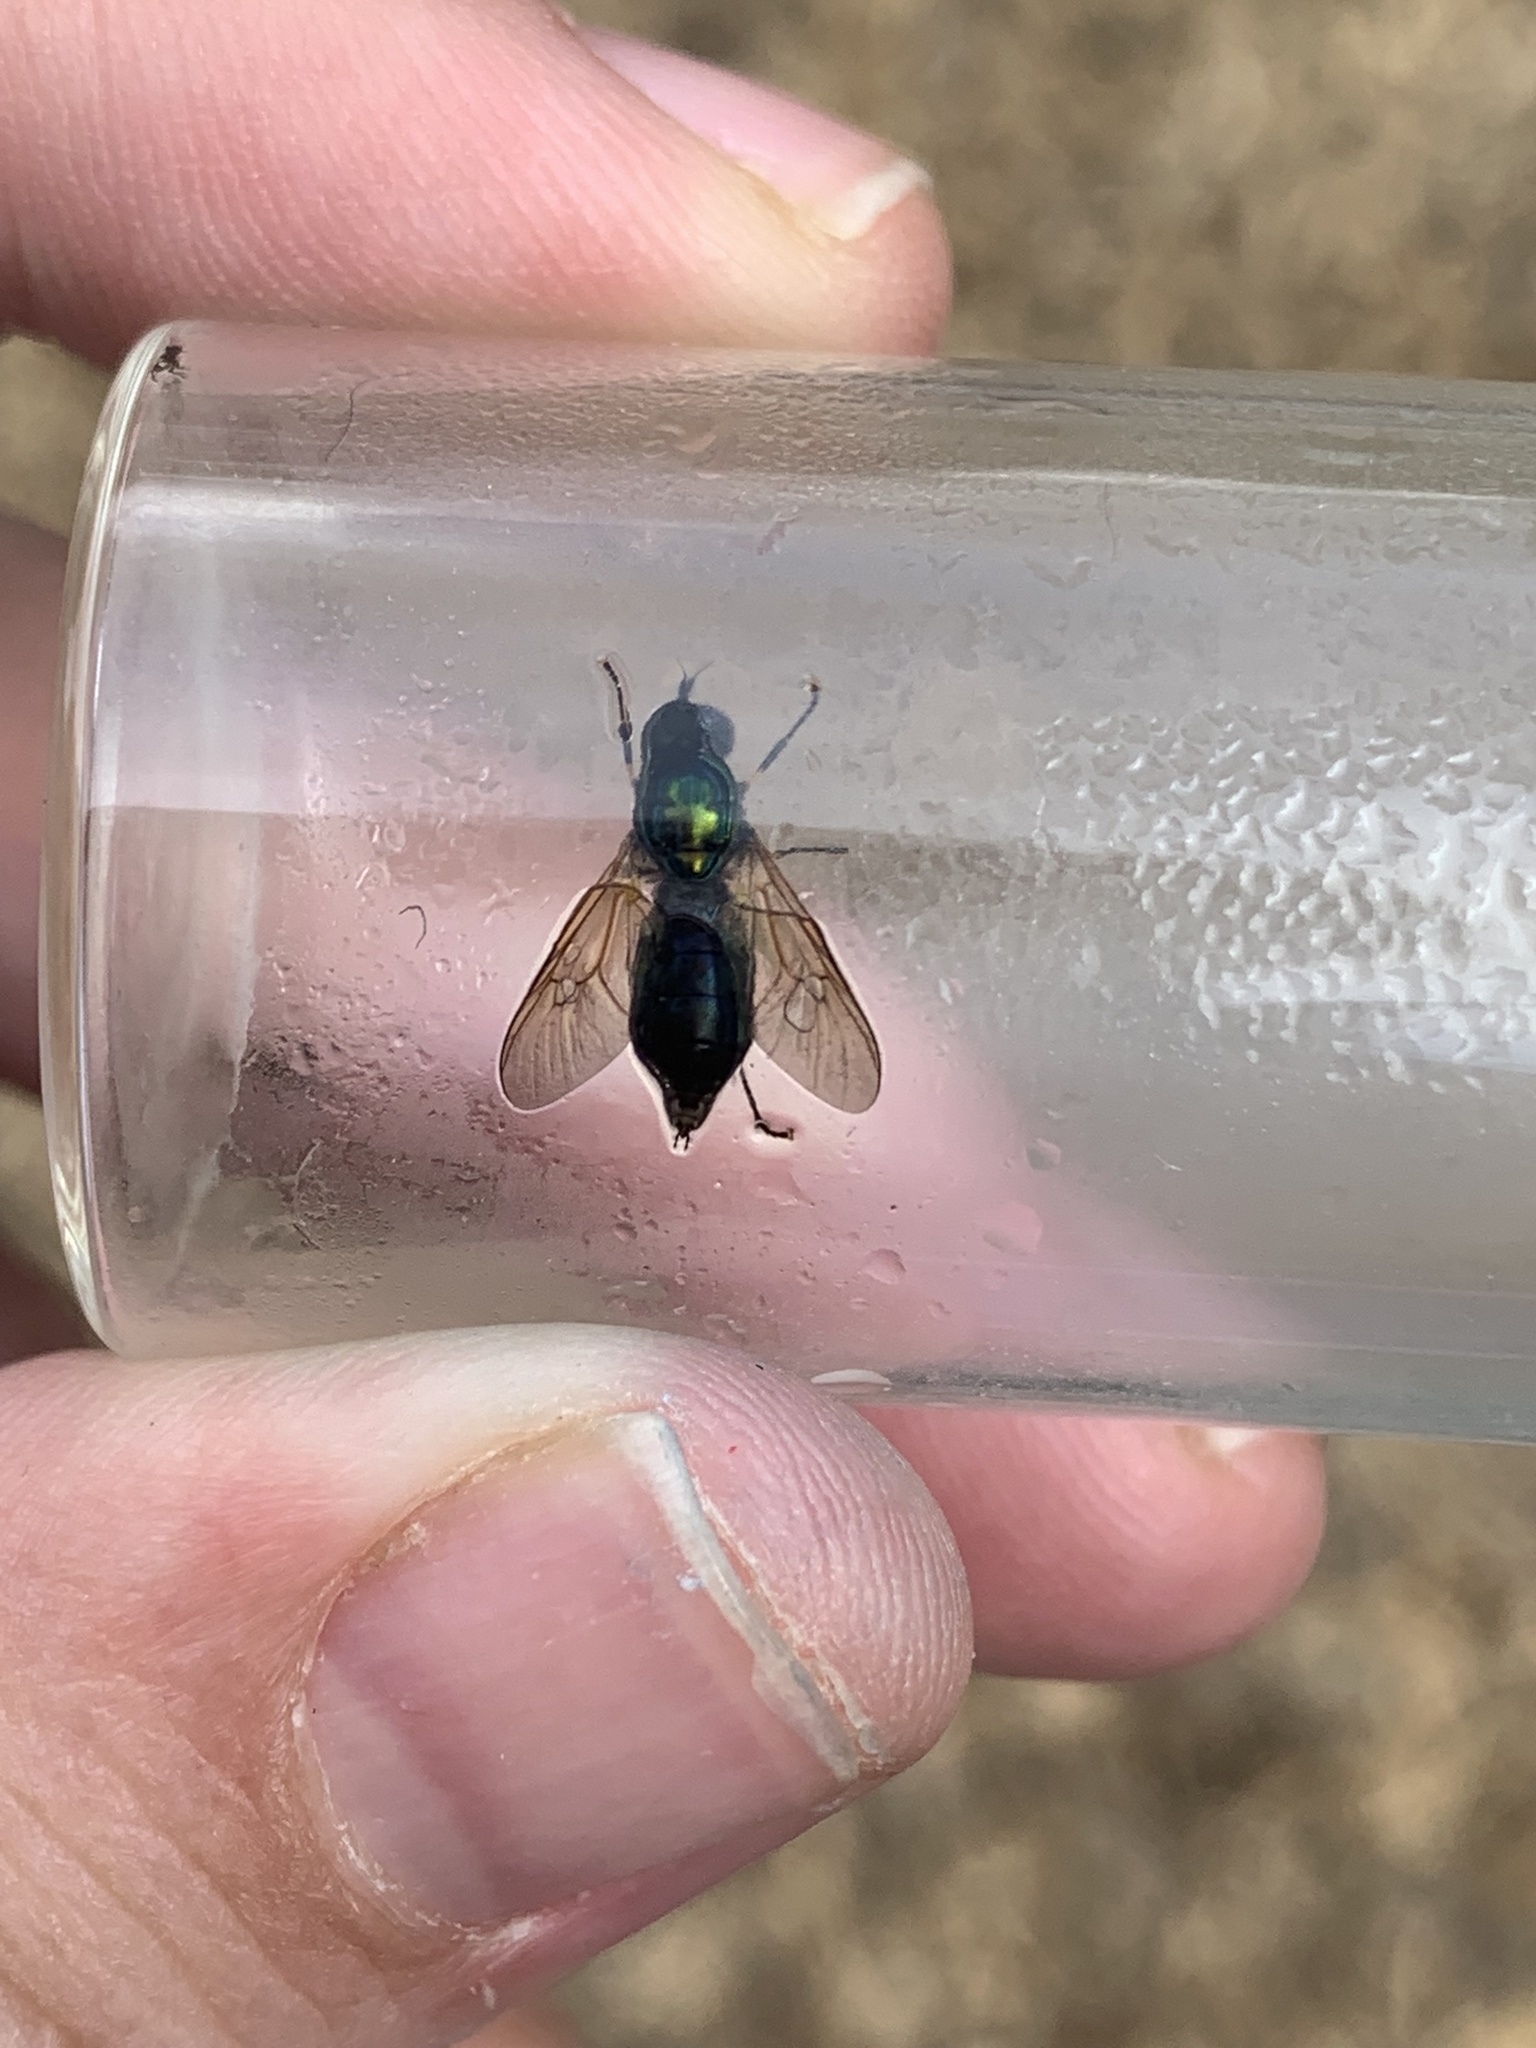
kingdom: Animalia
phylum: Arthropoda
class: Insecta
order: Diptera
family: Stratiomyidae
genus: Chloromyia
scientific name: Chloromyia formosa
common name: Soldier fly
